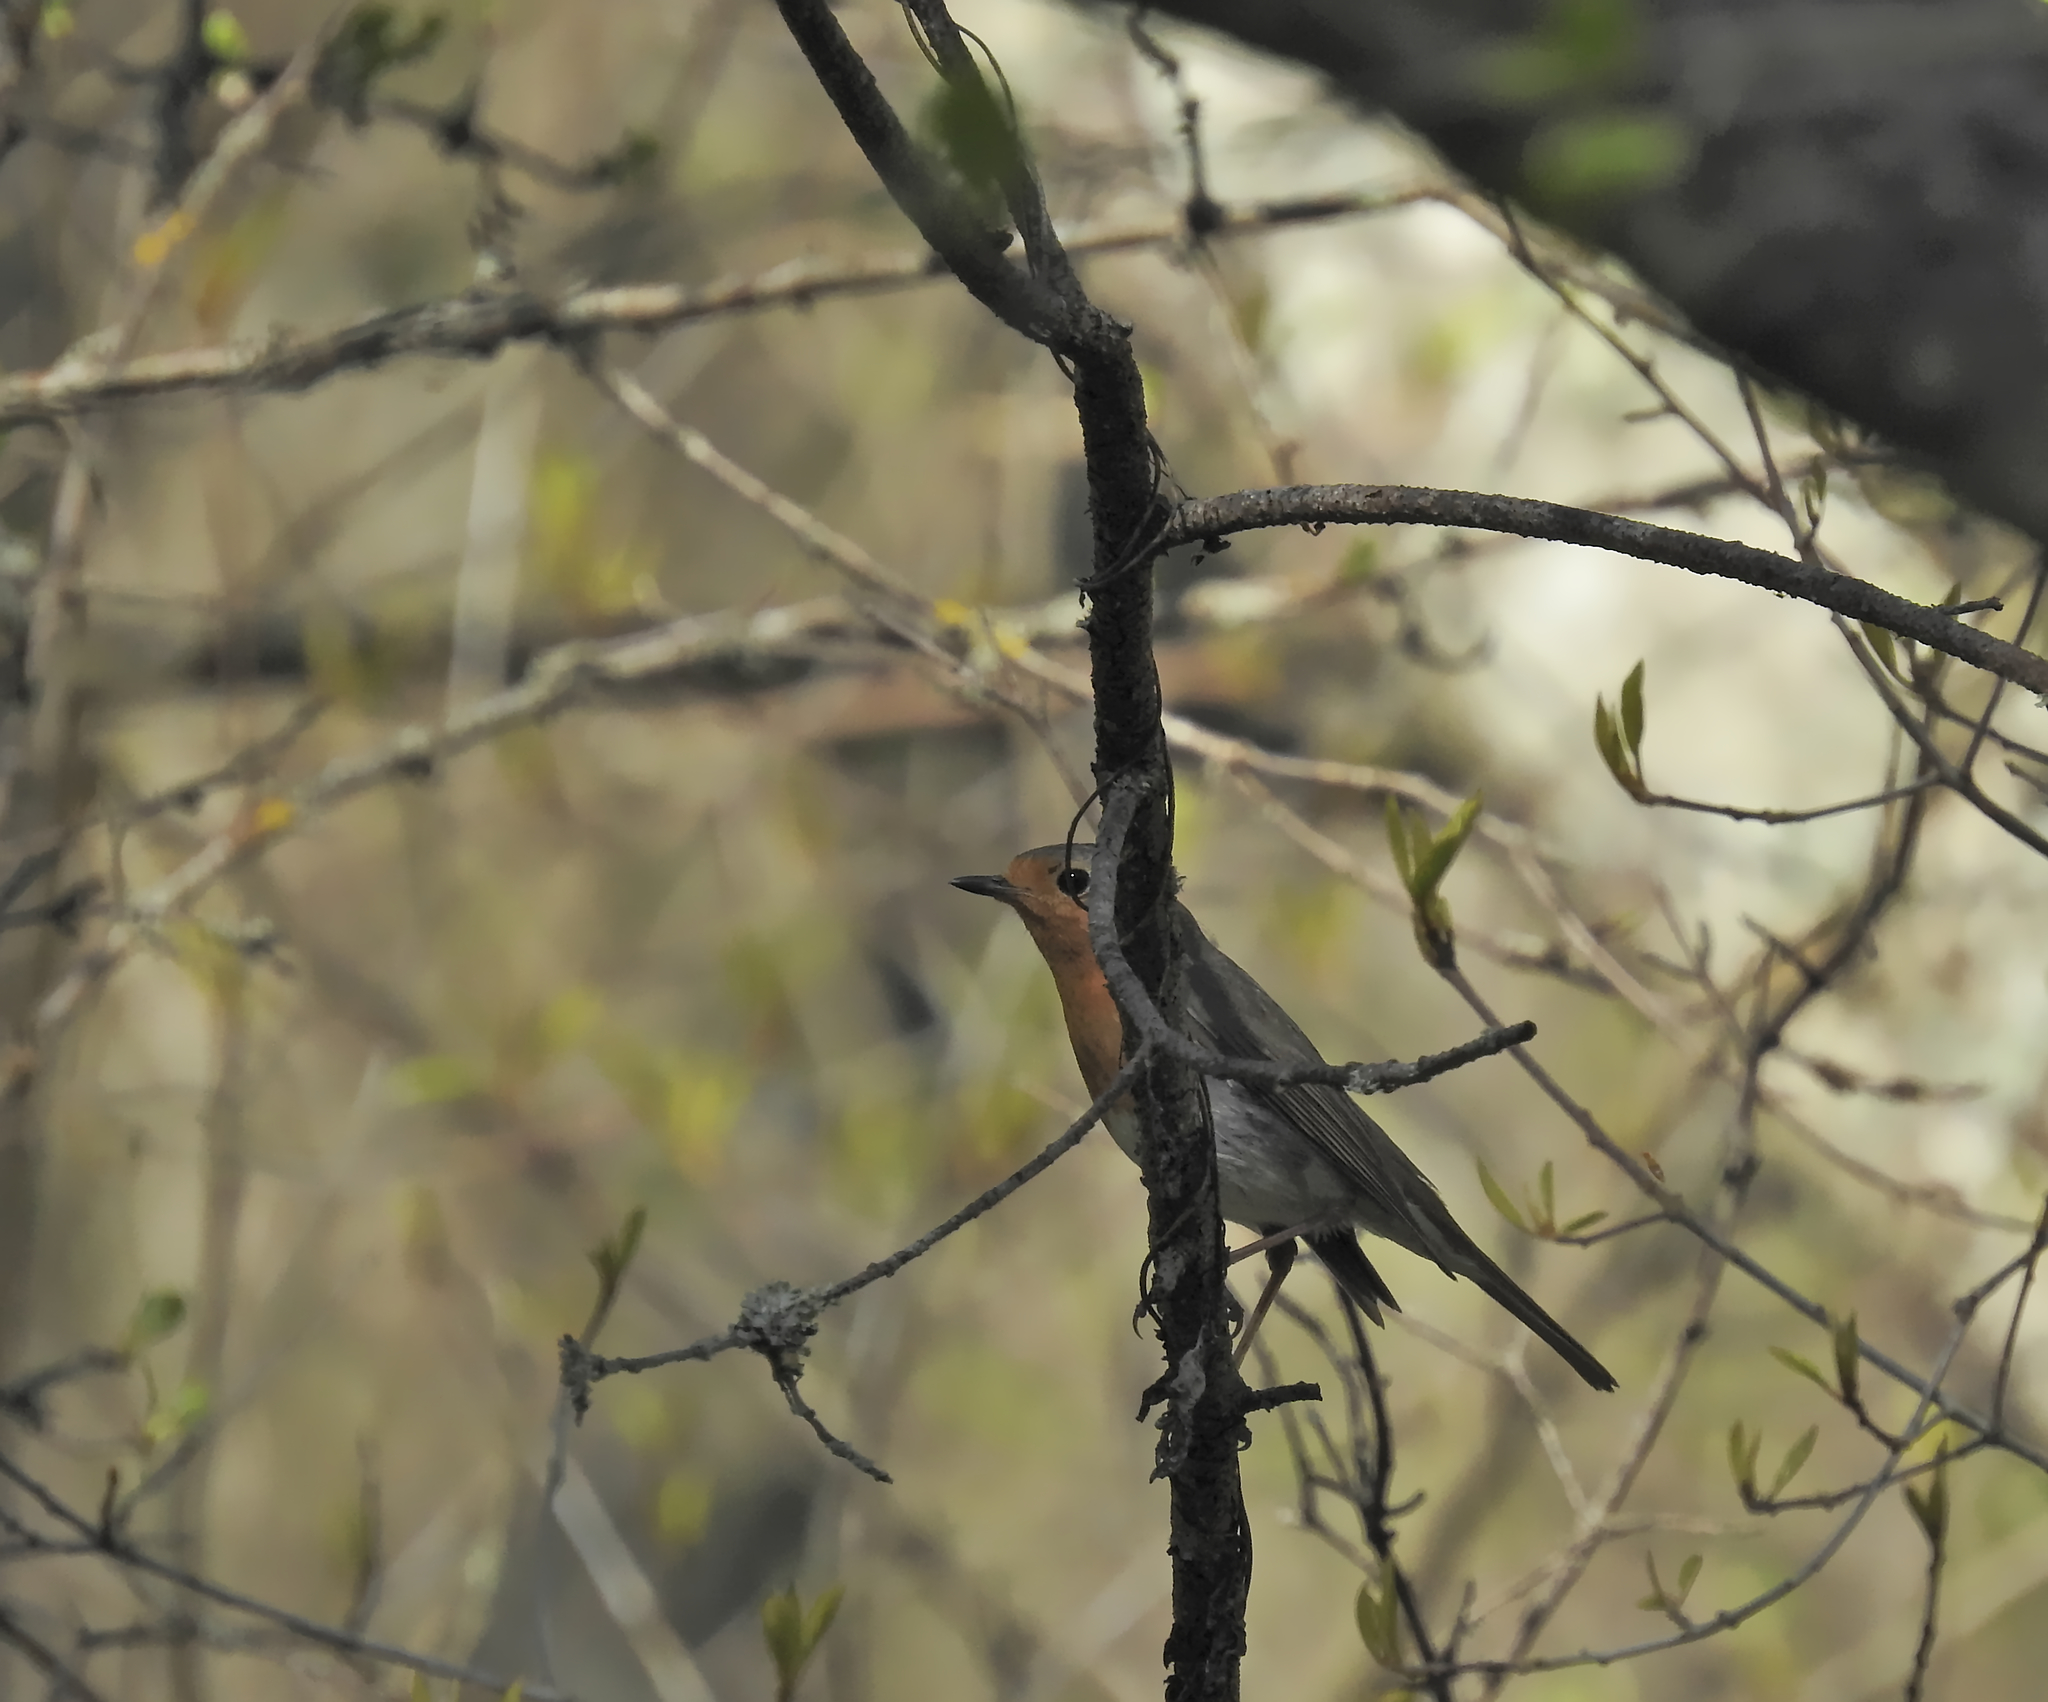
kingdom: Animalia
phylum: Chordata
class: Aves
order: Passeriformes
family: Muscicapidae
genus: Erithacus
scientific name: Erithacus rubecula
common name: European robin
